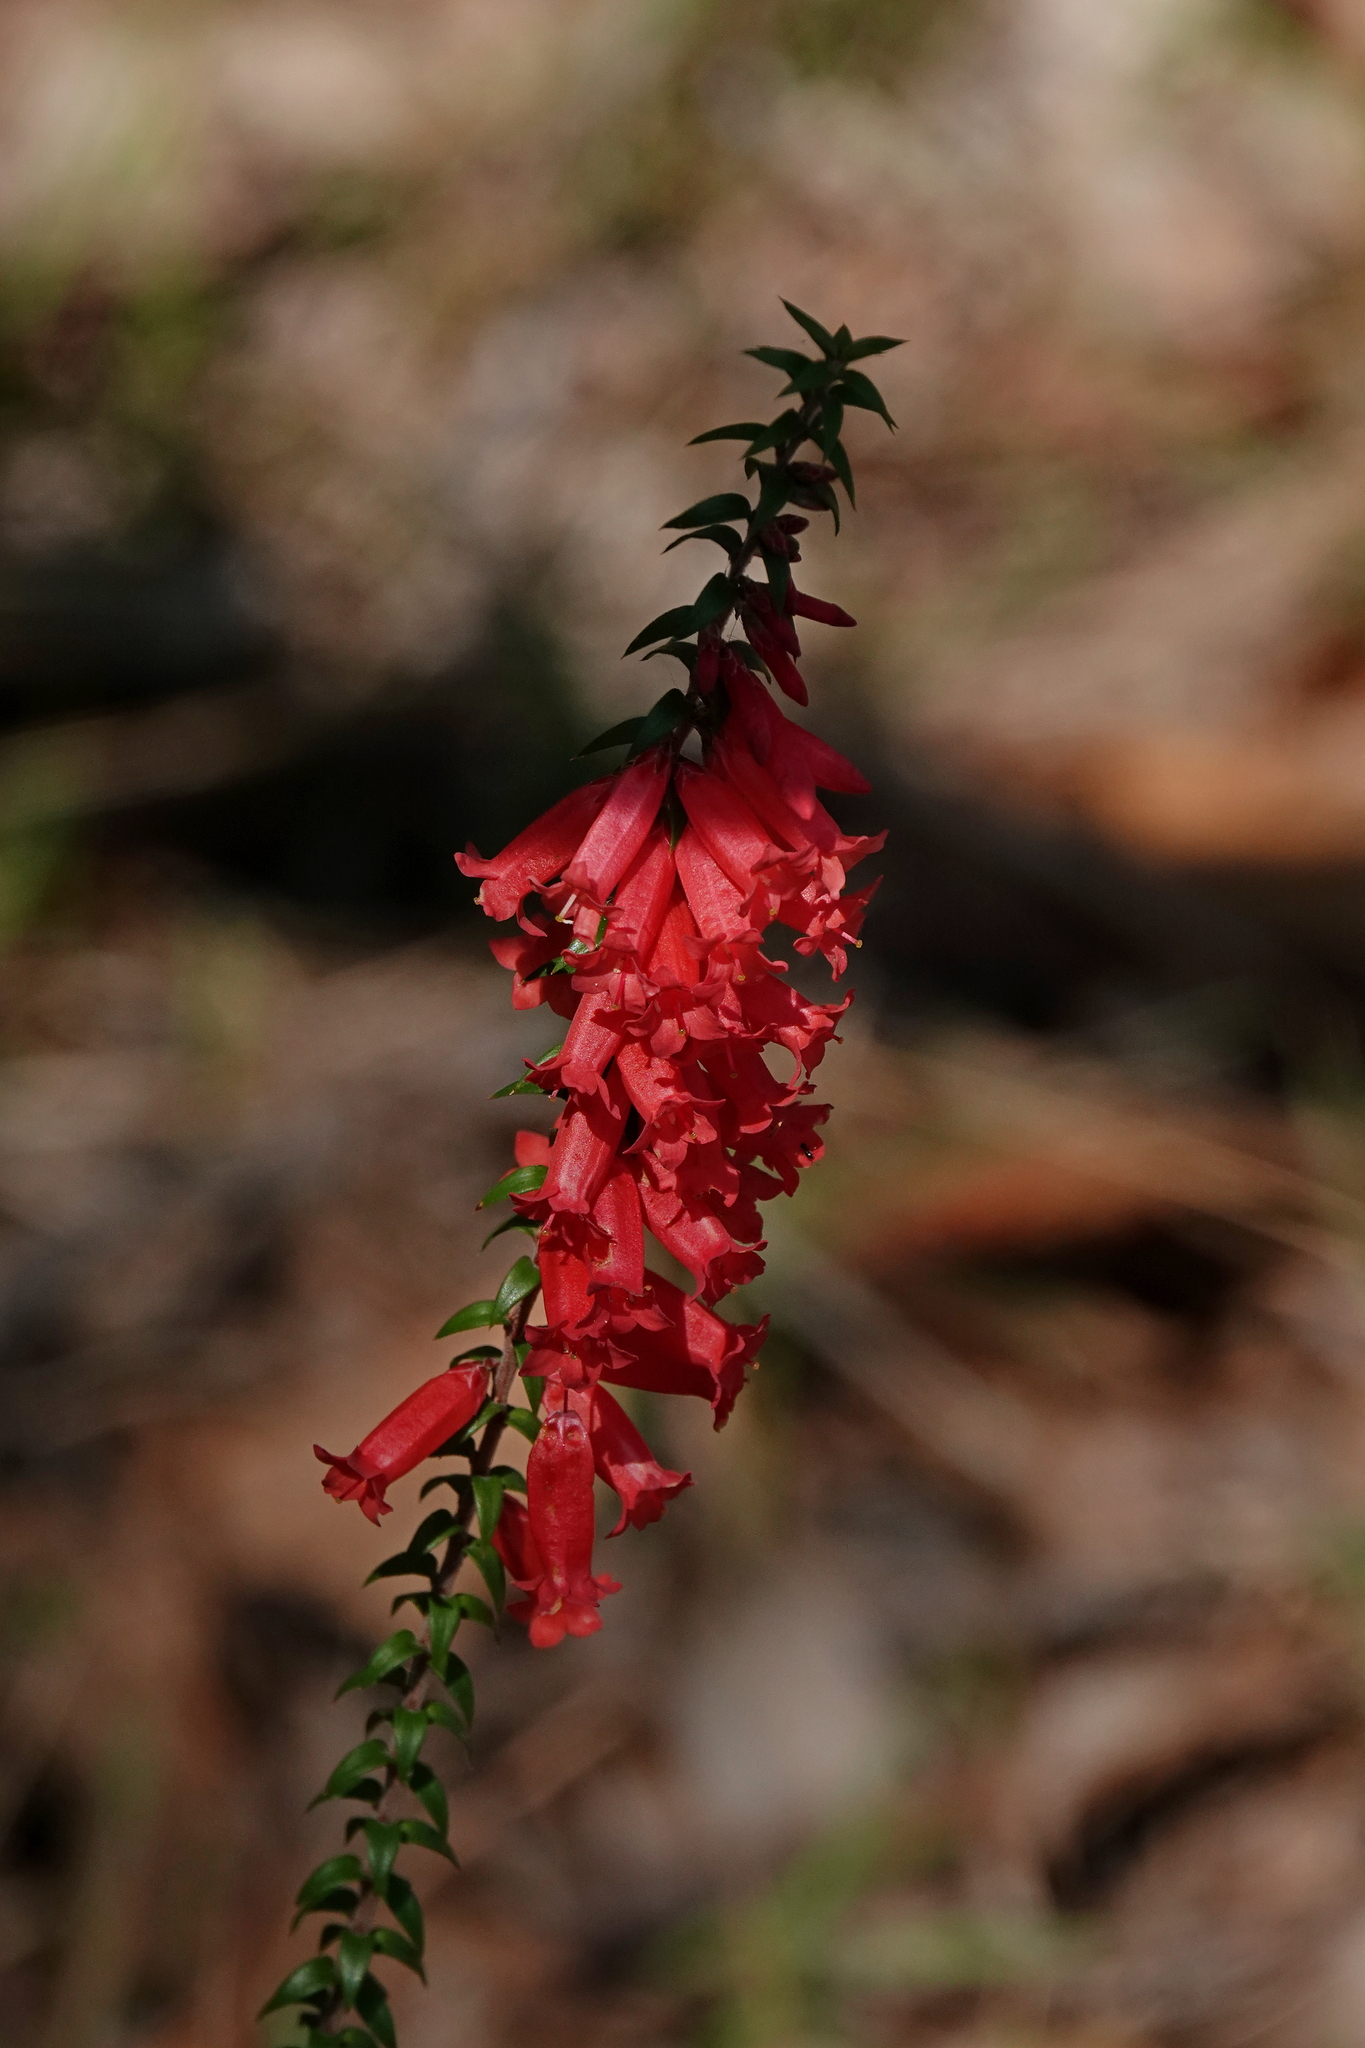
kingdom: Plantae
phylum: Tracheophyta
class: Magnoliopsida
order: Ericales
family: Ericaceae
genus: Epacris
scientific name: Epacris impressa
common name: Common-heath
